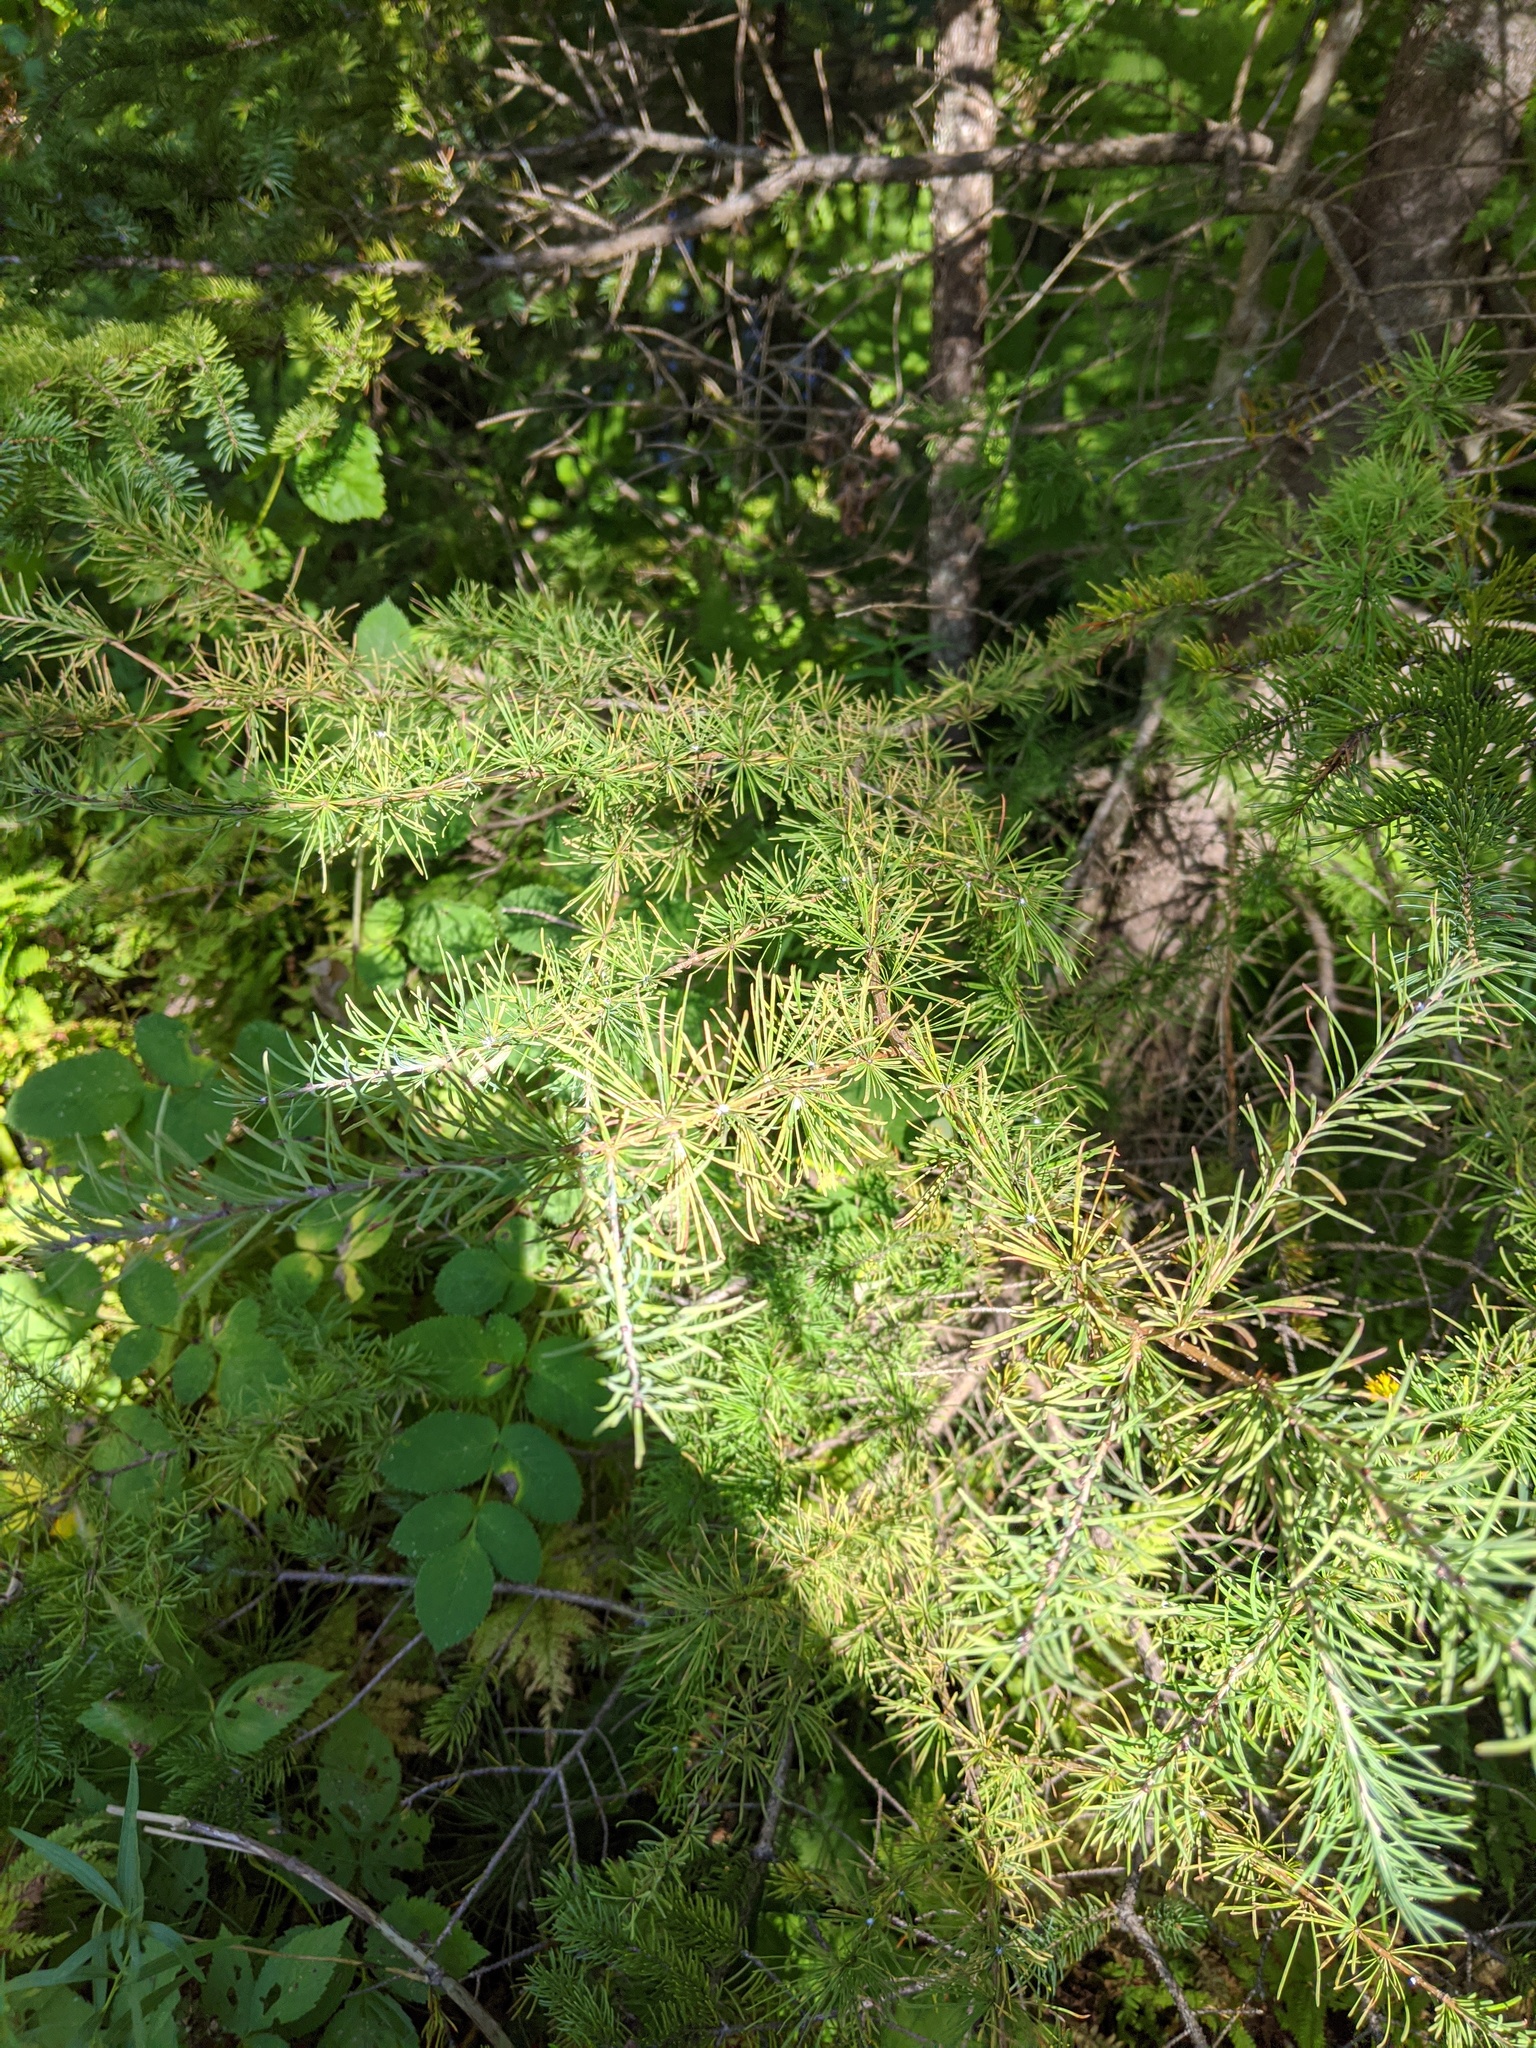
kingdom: Plantae
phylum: Tracheophyta
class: Pinopsida
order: Pinales
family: Pinaceae
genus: Larix
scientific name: Larix laricina
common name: American larch
